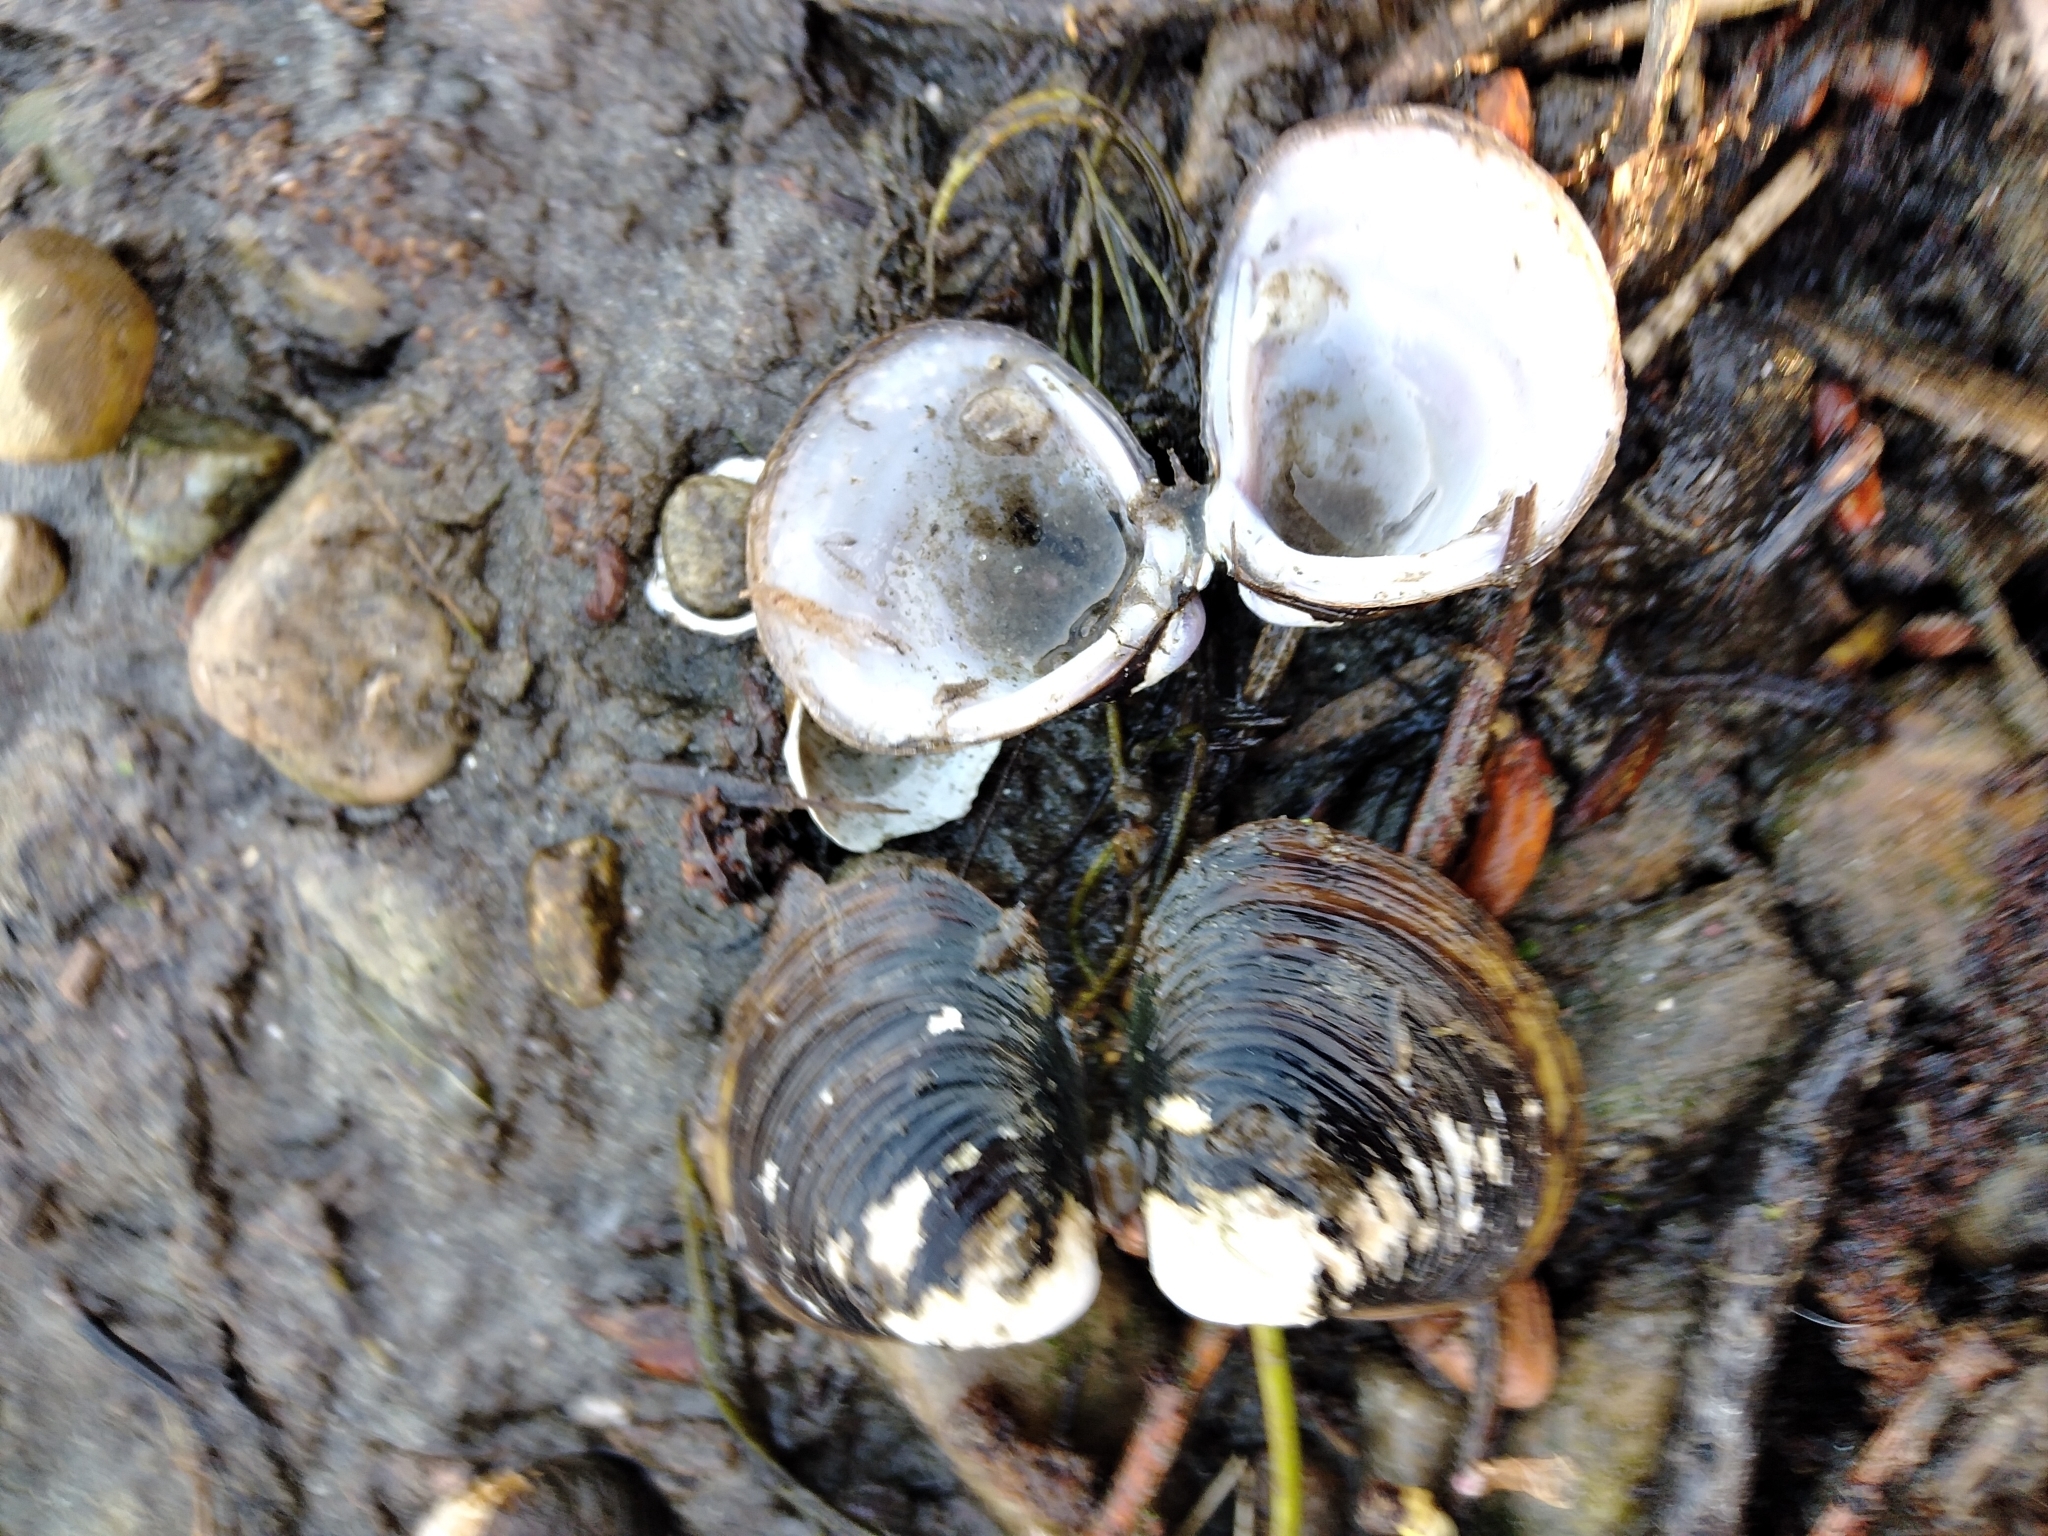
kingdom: Animalia
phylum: Mollusca
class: Bivalvia
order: Venerida
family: Cyrenidae
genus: Corbicula
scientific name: Corbicula fluminea
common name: Asian clam
